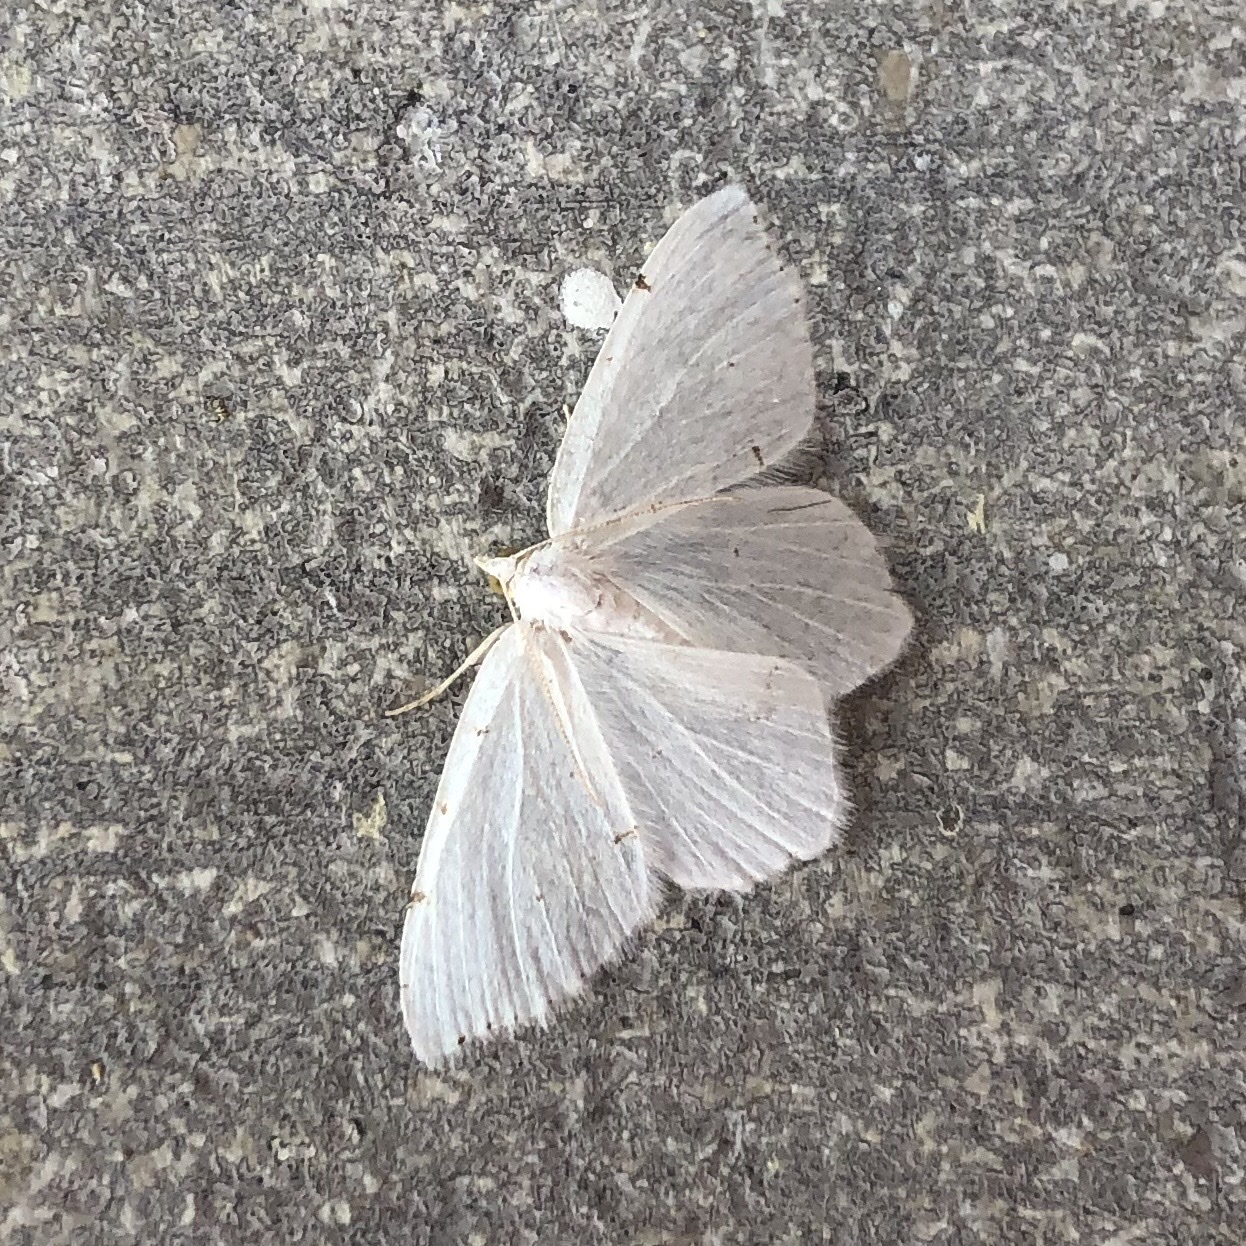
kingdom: Animalia
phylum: Arthropoda
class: Insecta
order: Lepidoptera
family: Geometridae
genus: Macaria
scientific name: Macaria pustularia
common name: Lesser maple spanworm moth
